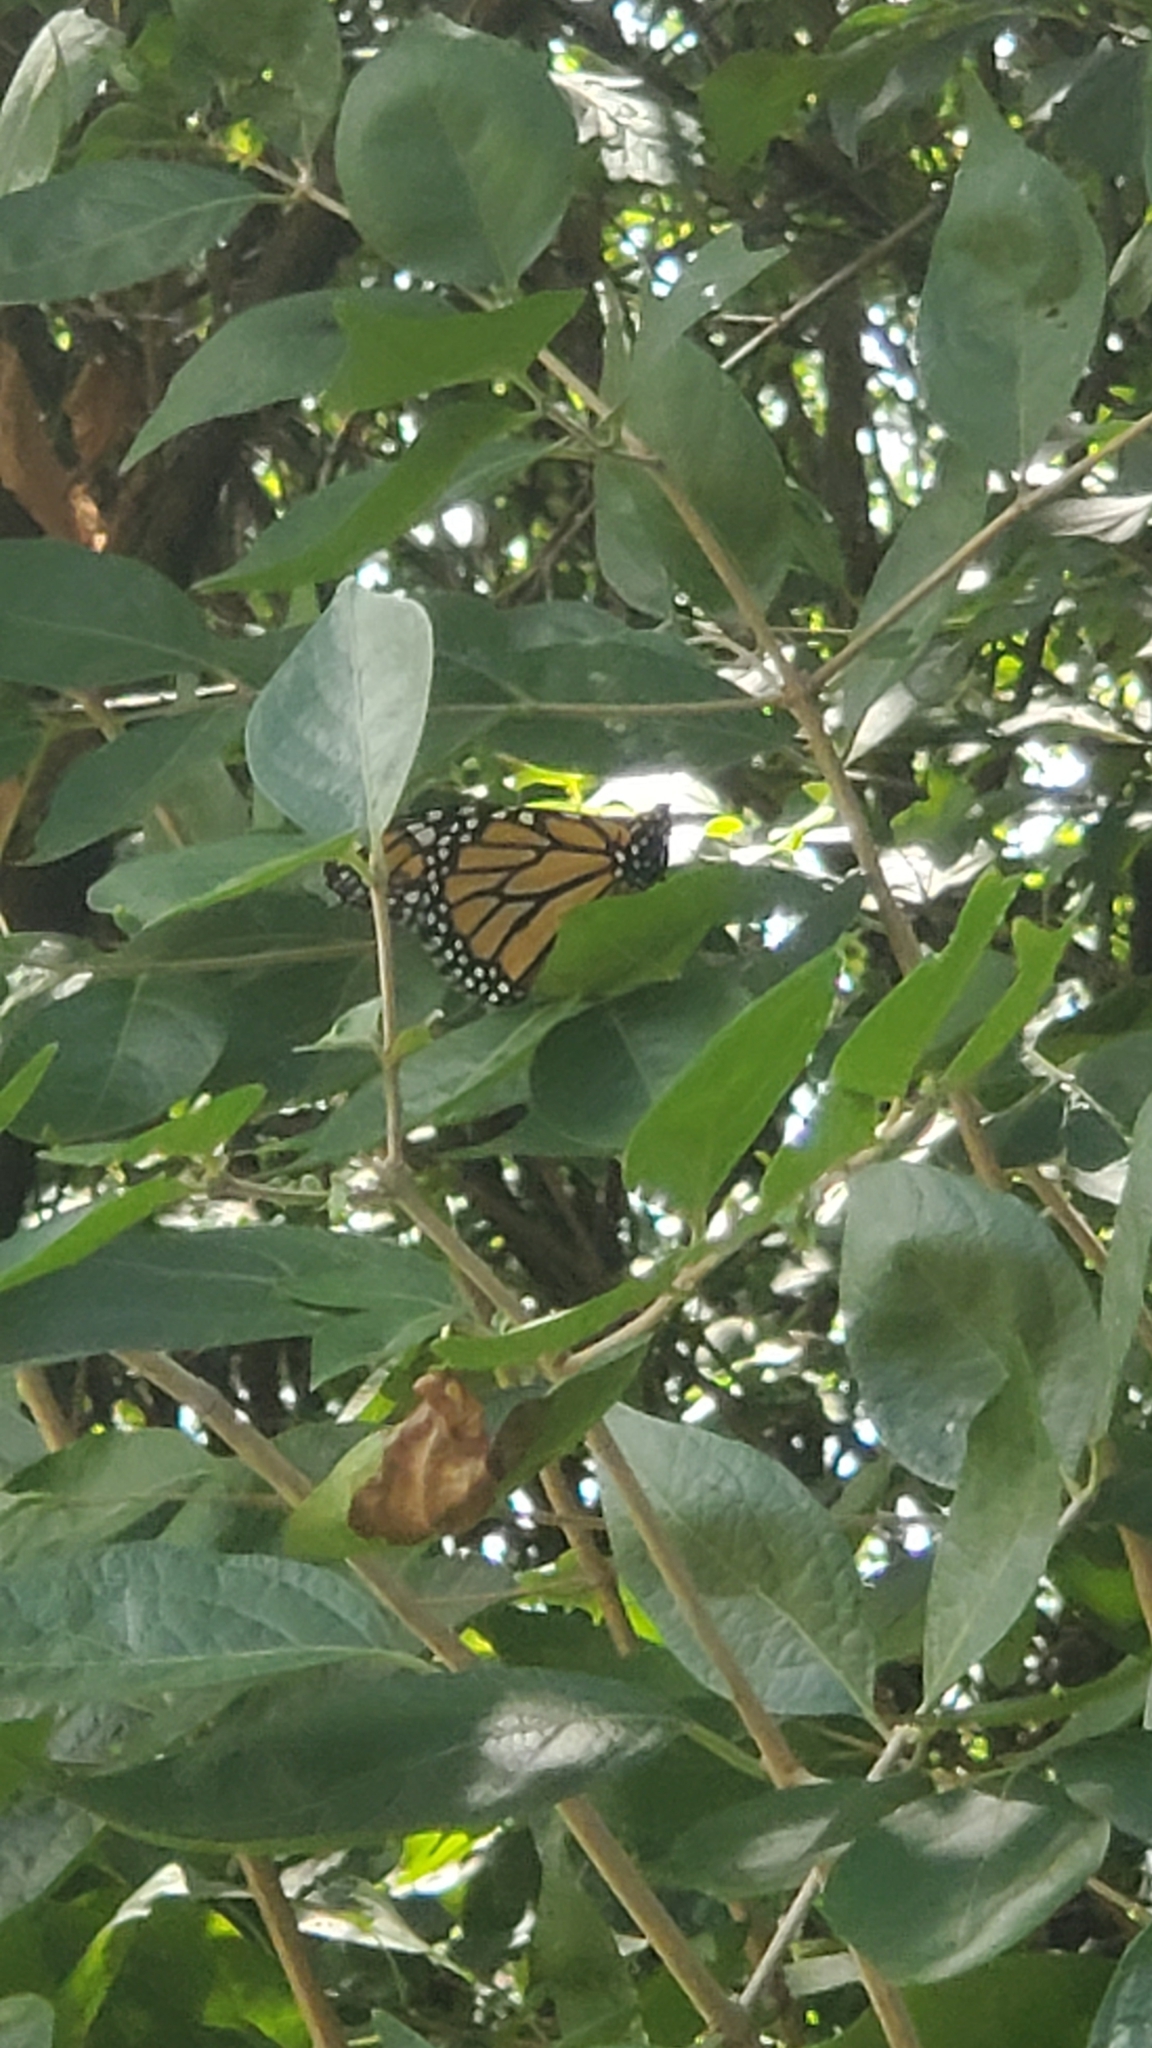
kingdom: Animalia
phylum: Arthropoda
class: Insecta
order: Lepidoptera
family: Nymphalidae
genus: Danaus
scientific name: Danaus plexippus
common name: Monarch
